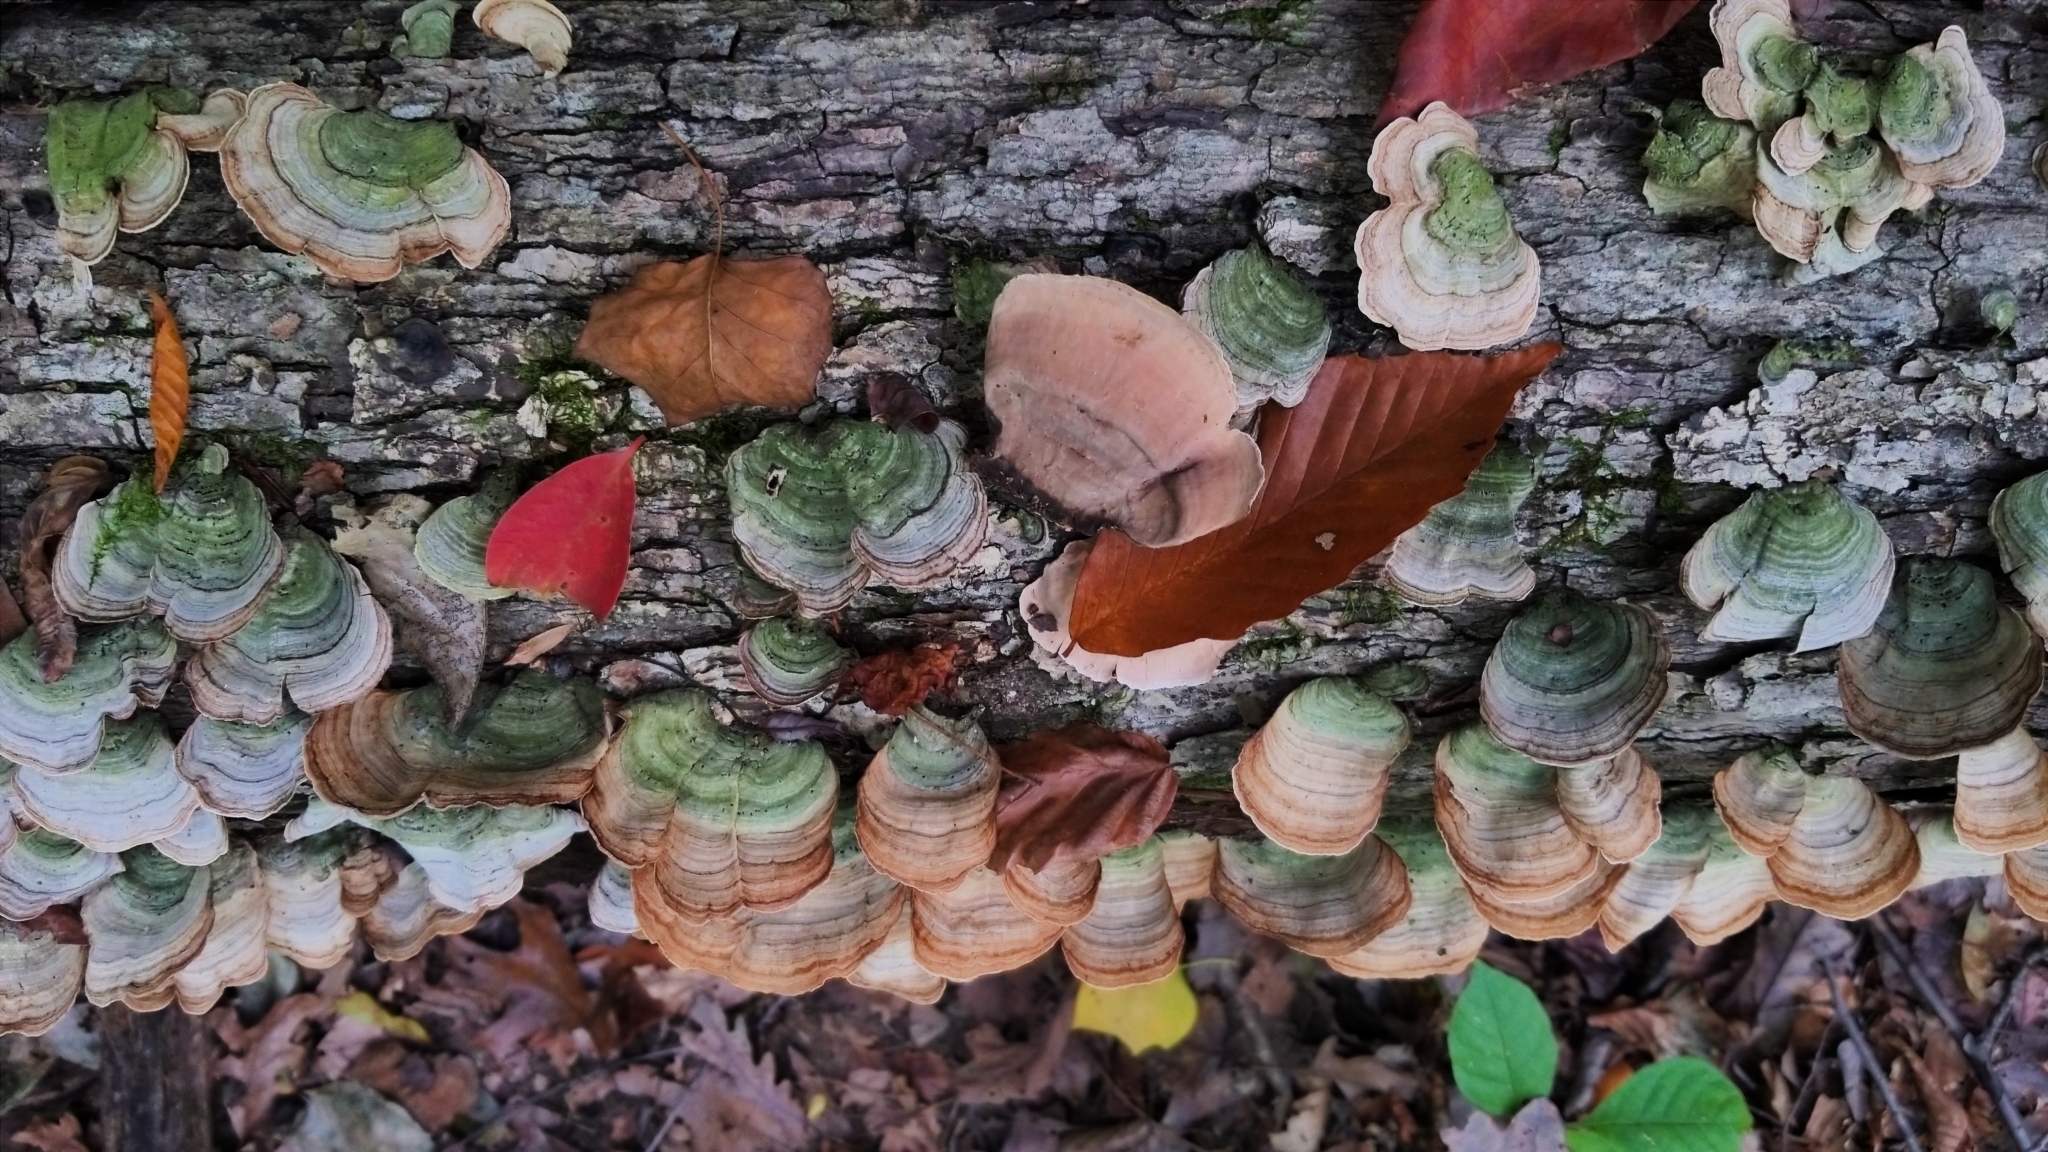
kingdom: Fungi
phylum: Basidiomycota
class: Agaricomycetes
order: Russulales
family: Stereaceae
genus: Stereum
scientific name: Stereum ostrea
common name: False turkeytail
